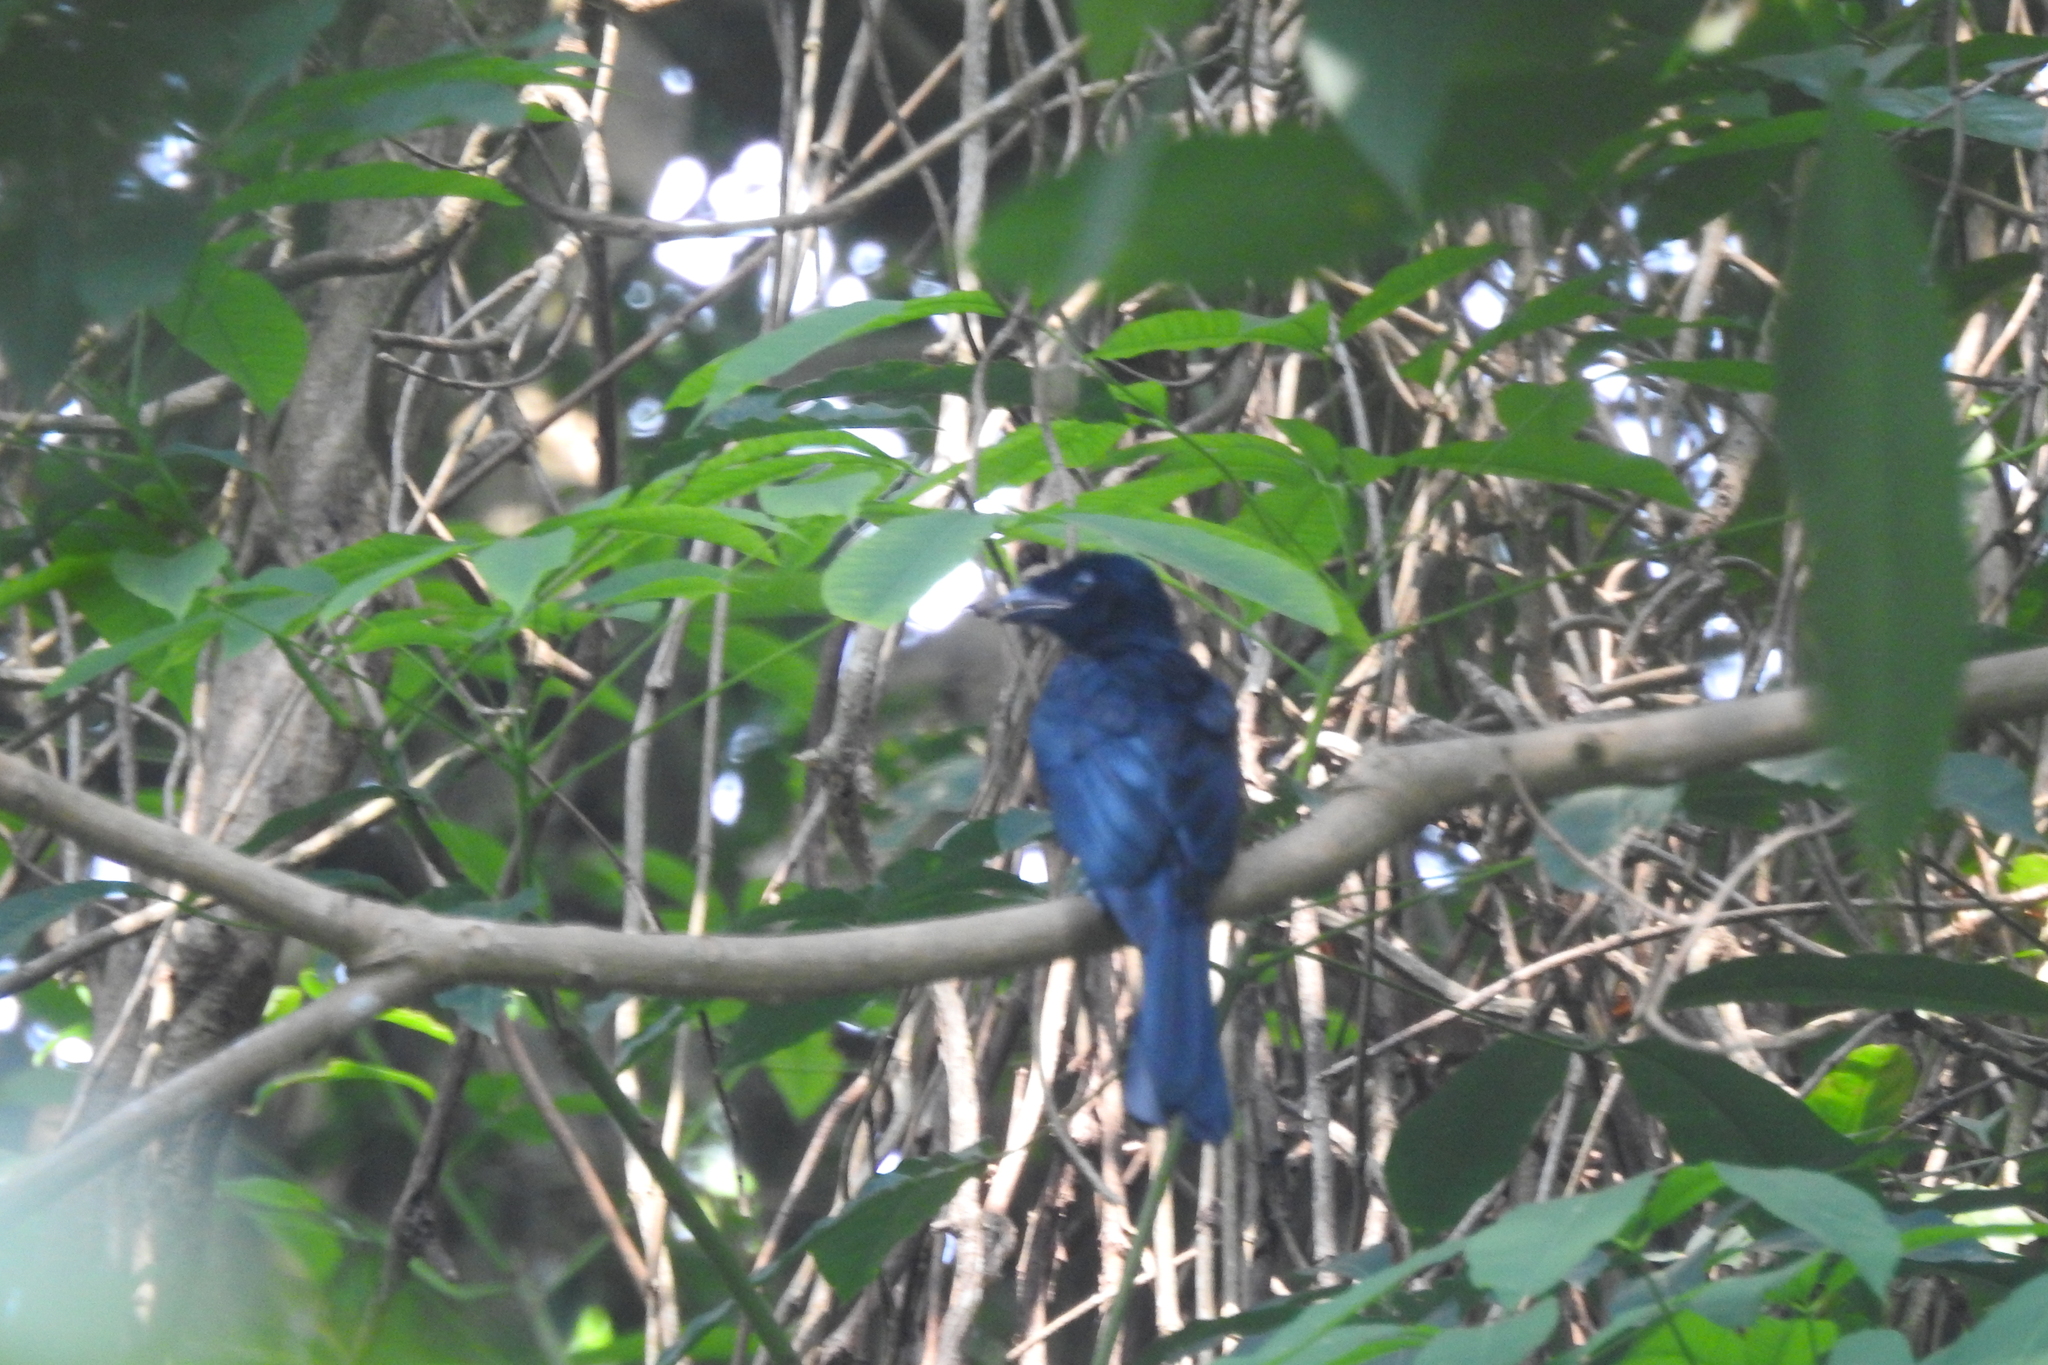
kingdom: Animalia
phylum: Chordata
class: Aves
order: Passeriformes
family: Dicruridae
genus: Dicrurus
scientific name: Dicrurus paradiseus
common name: Greater racket-tailed drongo
